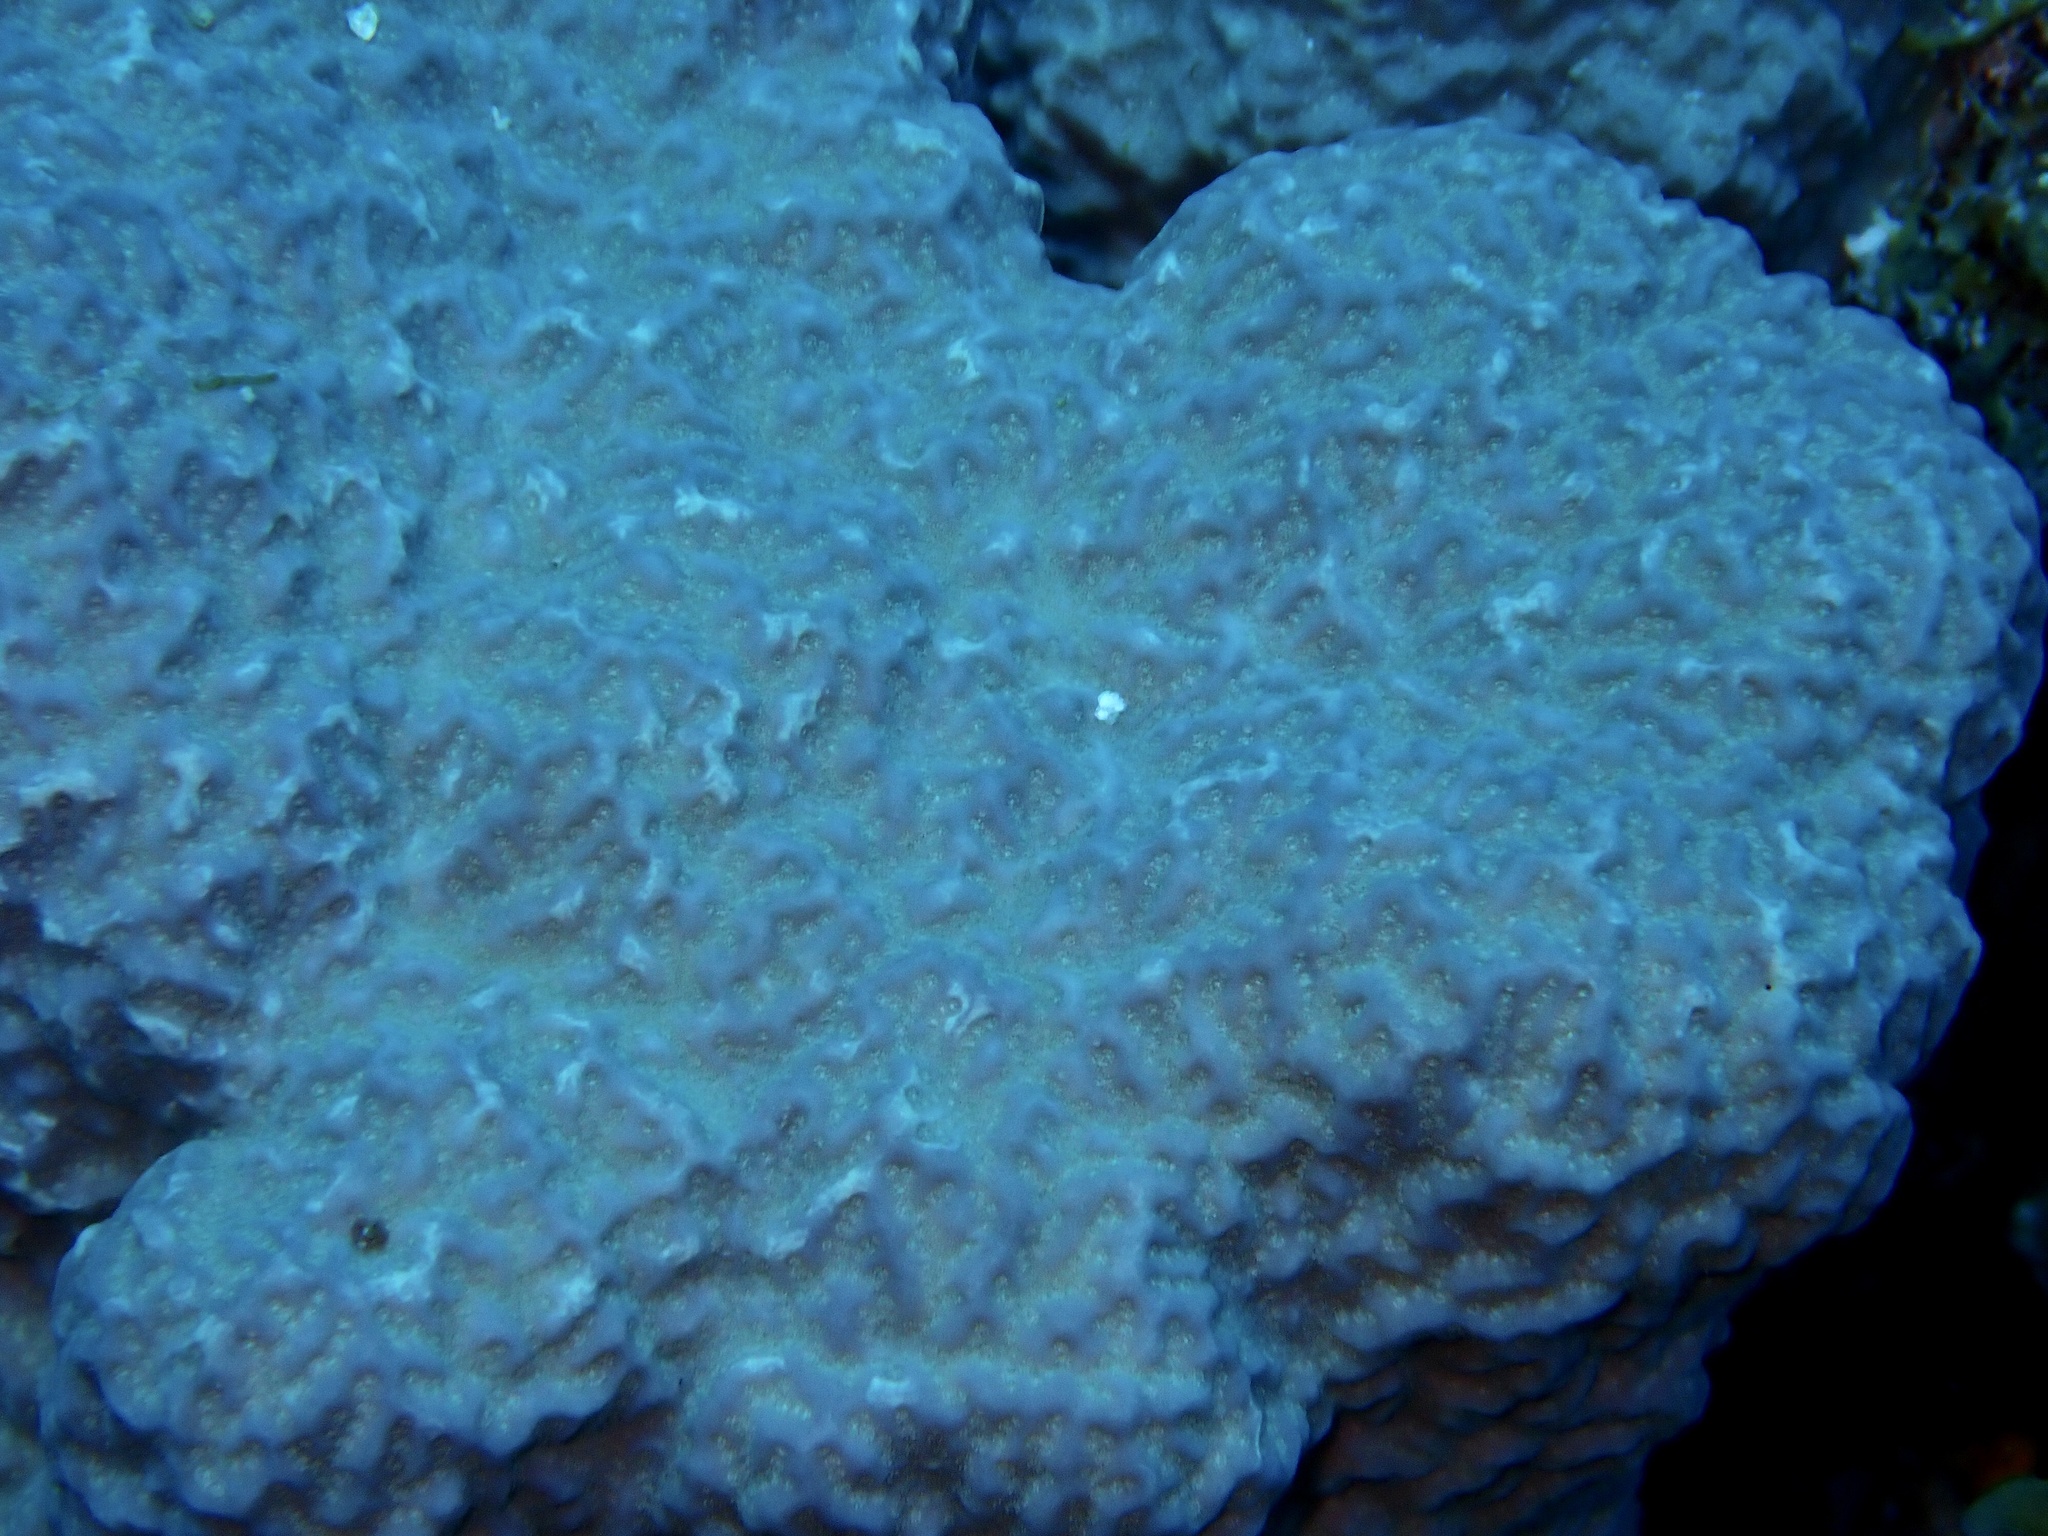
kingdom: Animalia
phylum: Cnidaria
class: Anthozoa
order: Scleractinia
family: Poritidae
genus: Porites
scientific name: Porites rus
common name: Hump coral
